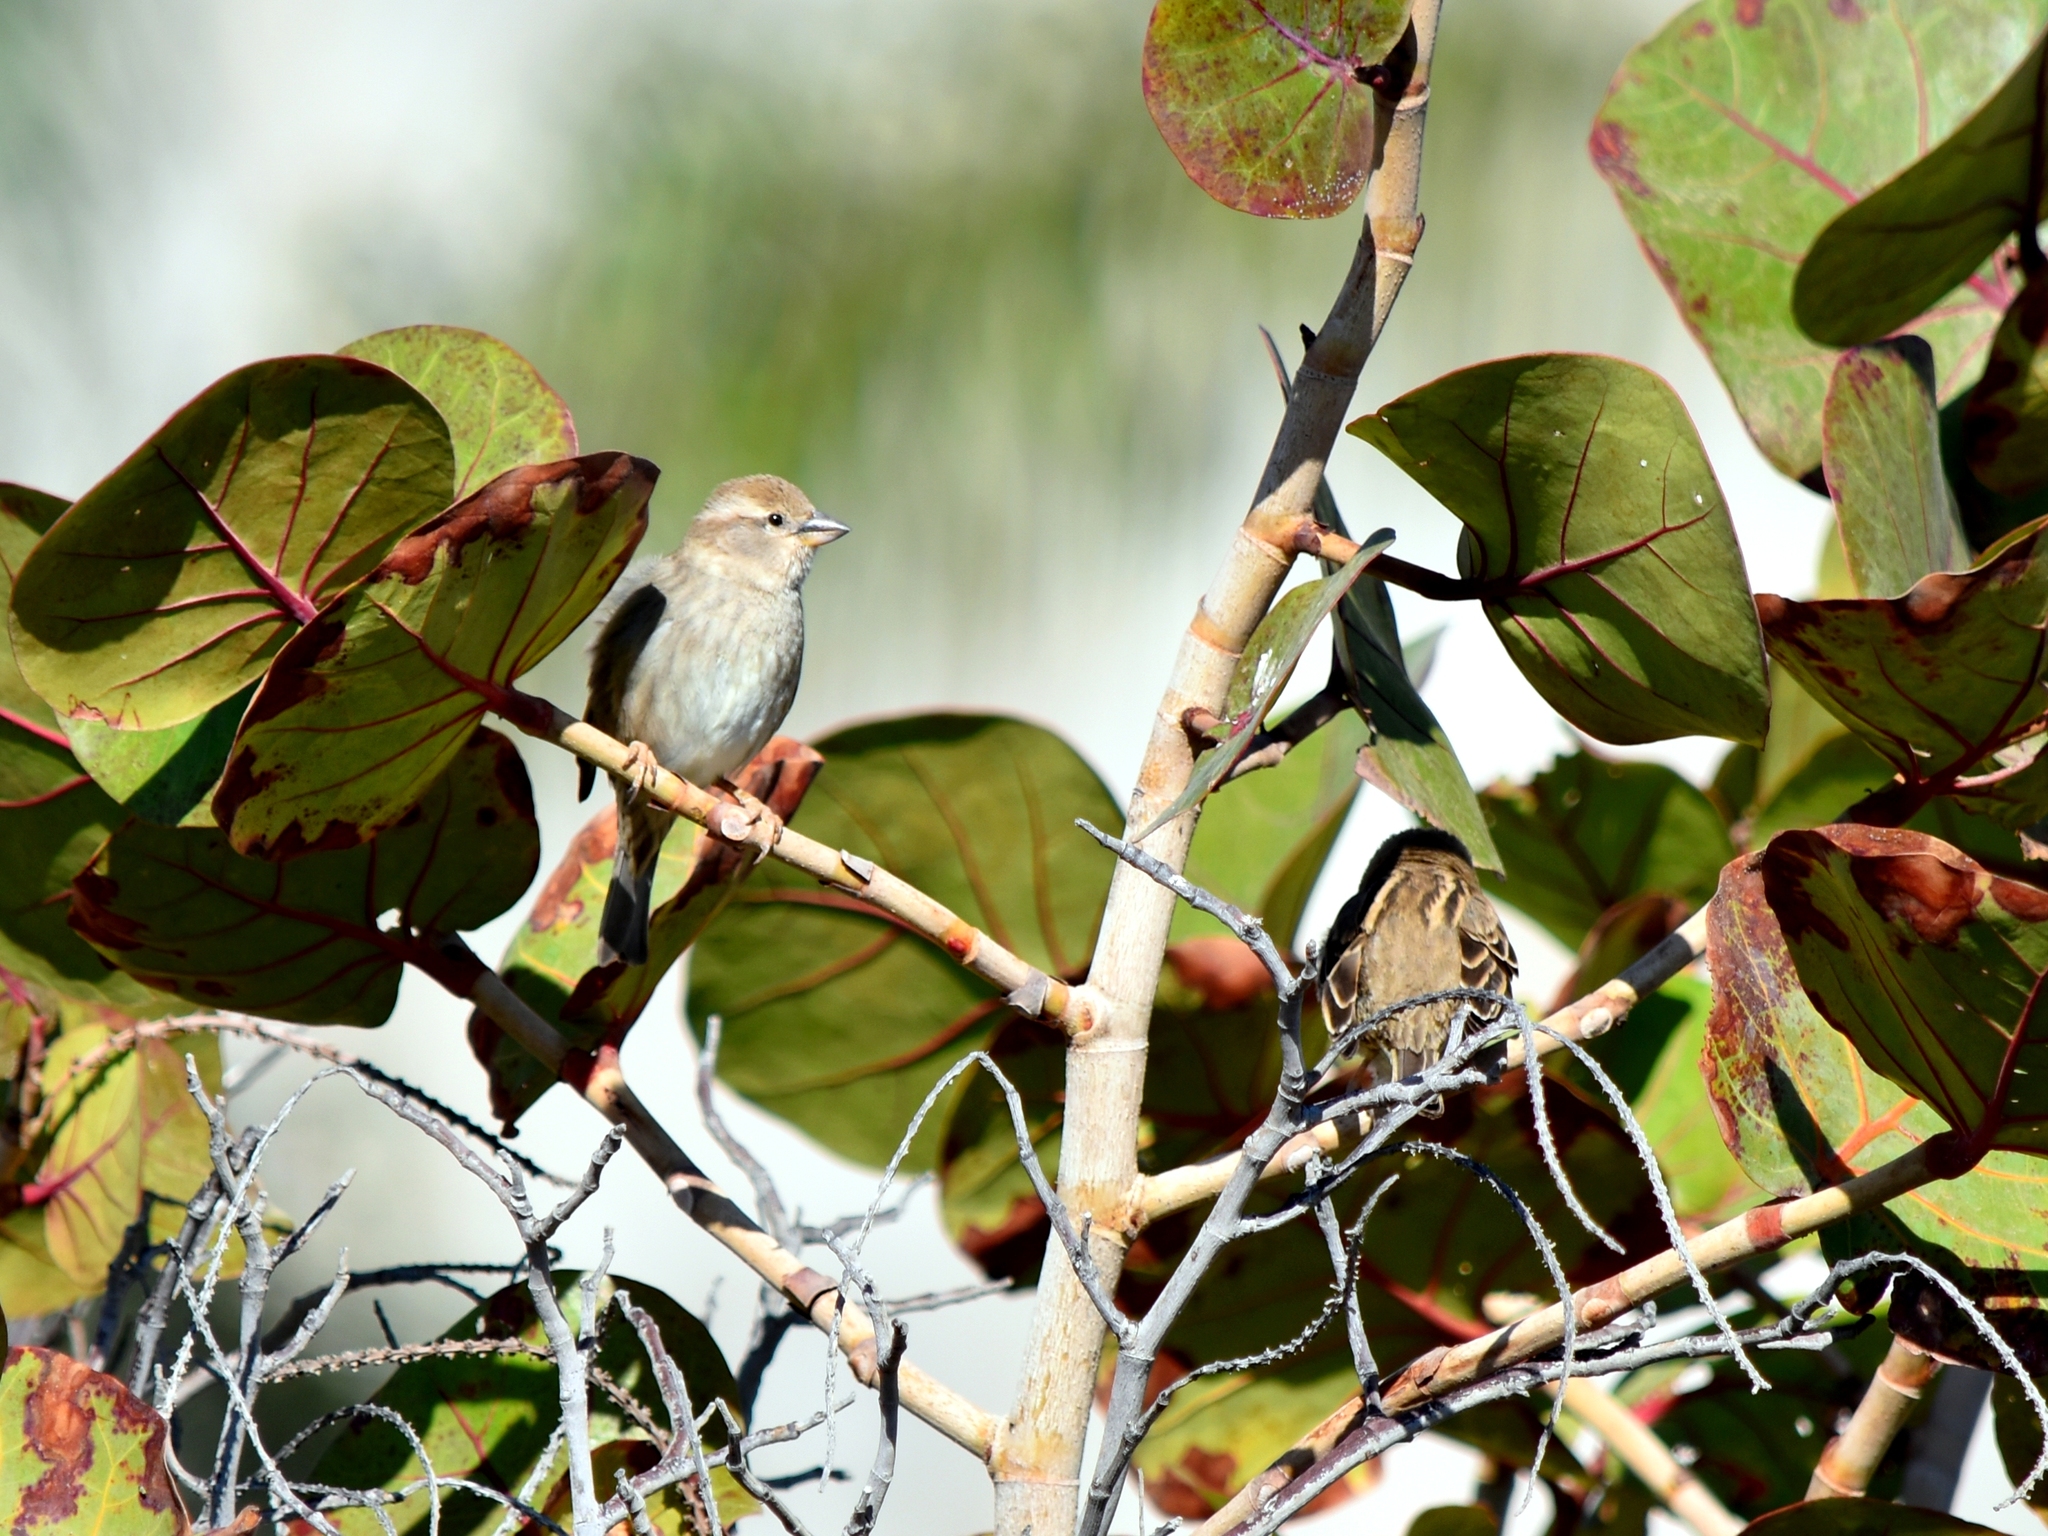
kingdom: Animalia
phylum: Chordata
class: Aves
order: Passeriformes
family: Passeridae
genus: Passer
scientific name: Passer hispaniolensis
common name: Spanish sparrow
